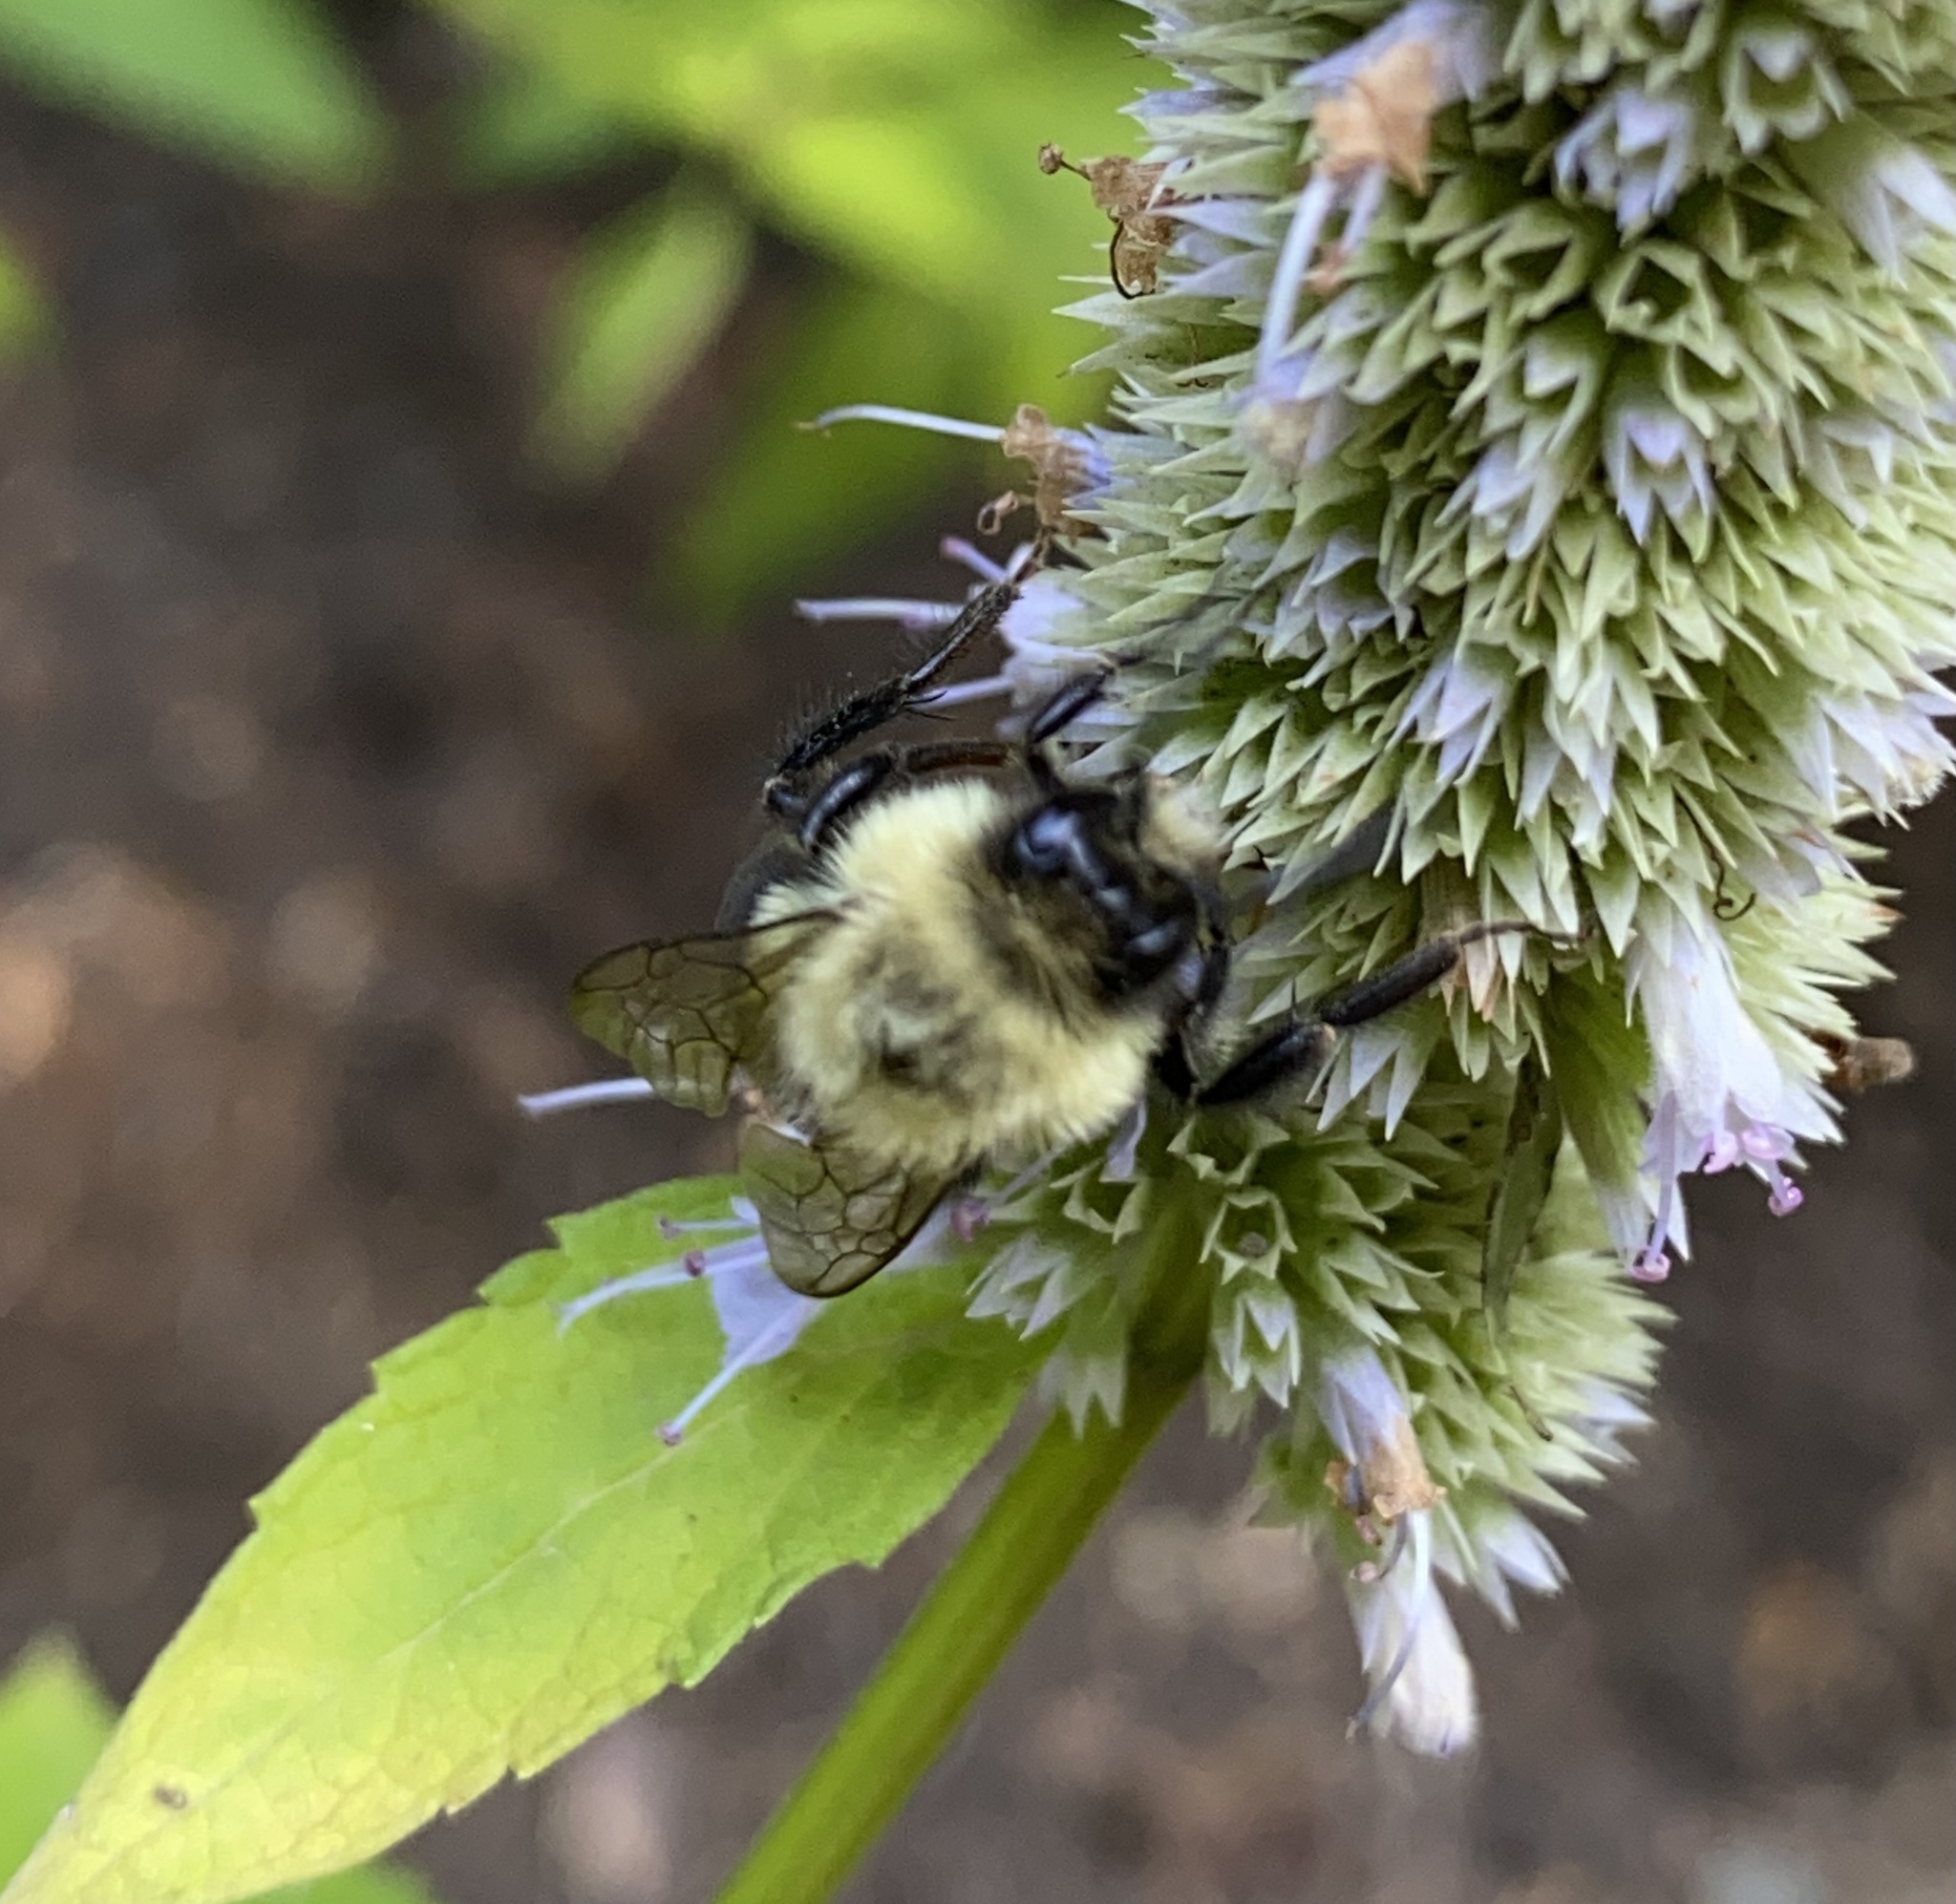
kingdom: Animalia
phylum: Arthropoda
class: Insecta
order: Hymenoptera
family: Apidae
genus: Bombus
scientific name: Bombus impatiens
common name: Common eastern bumble bee
